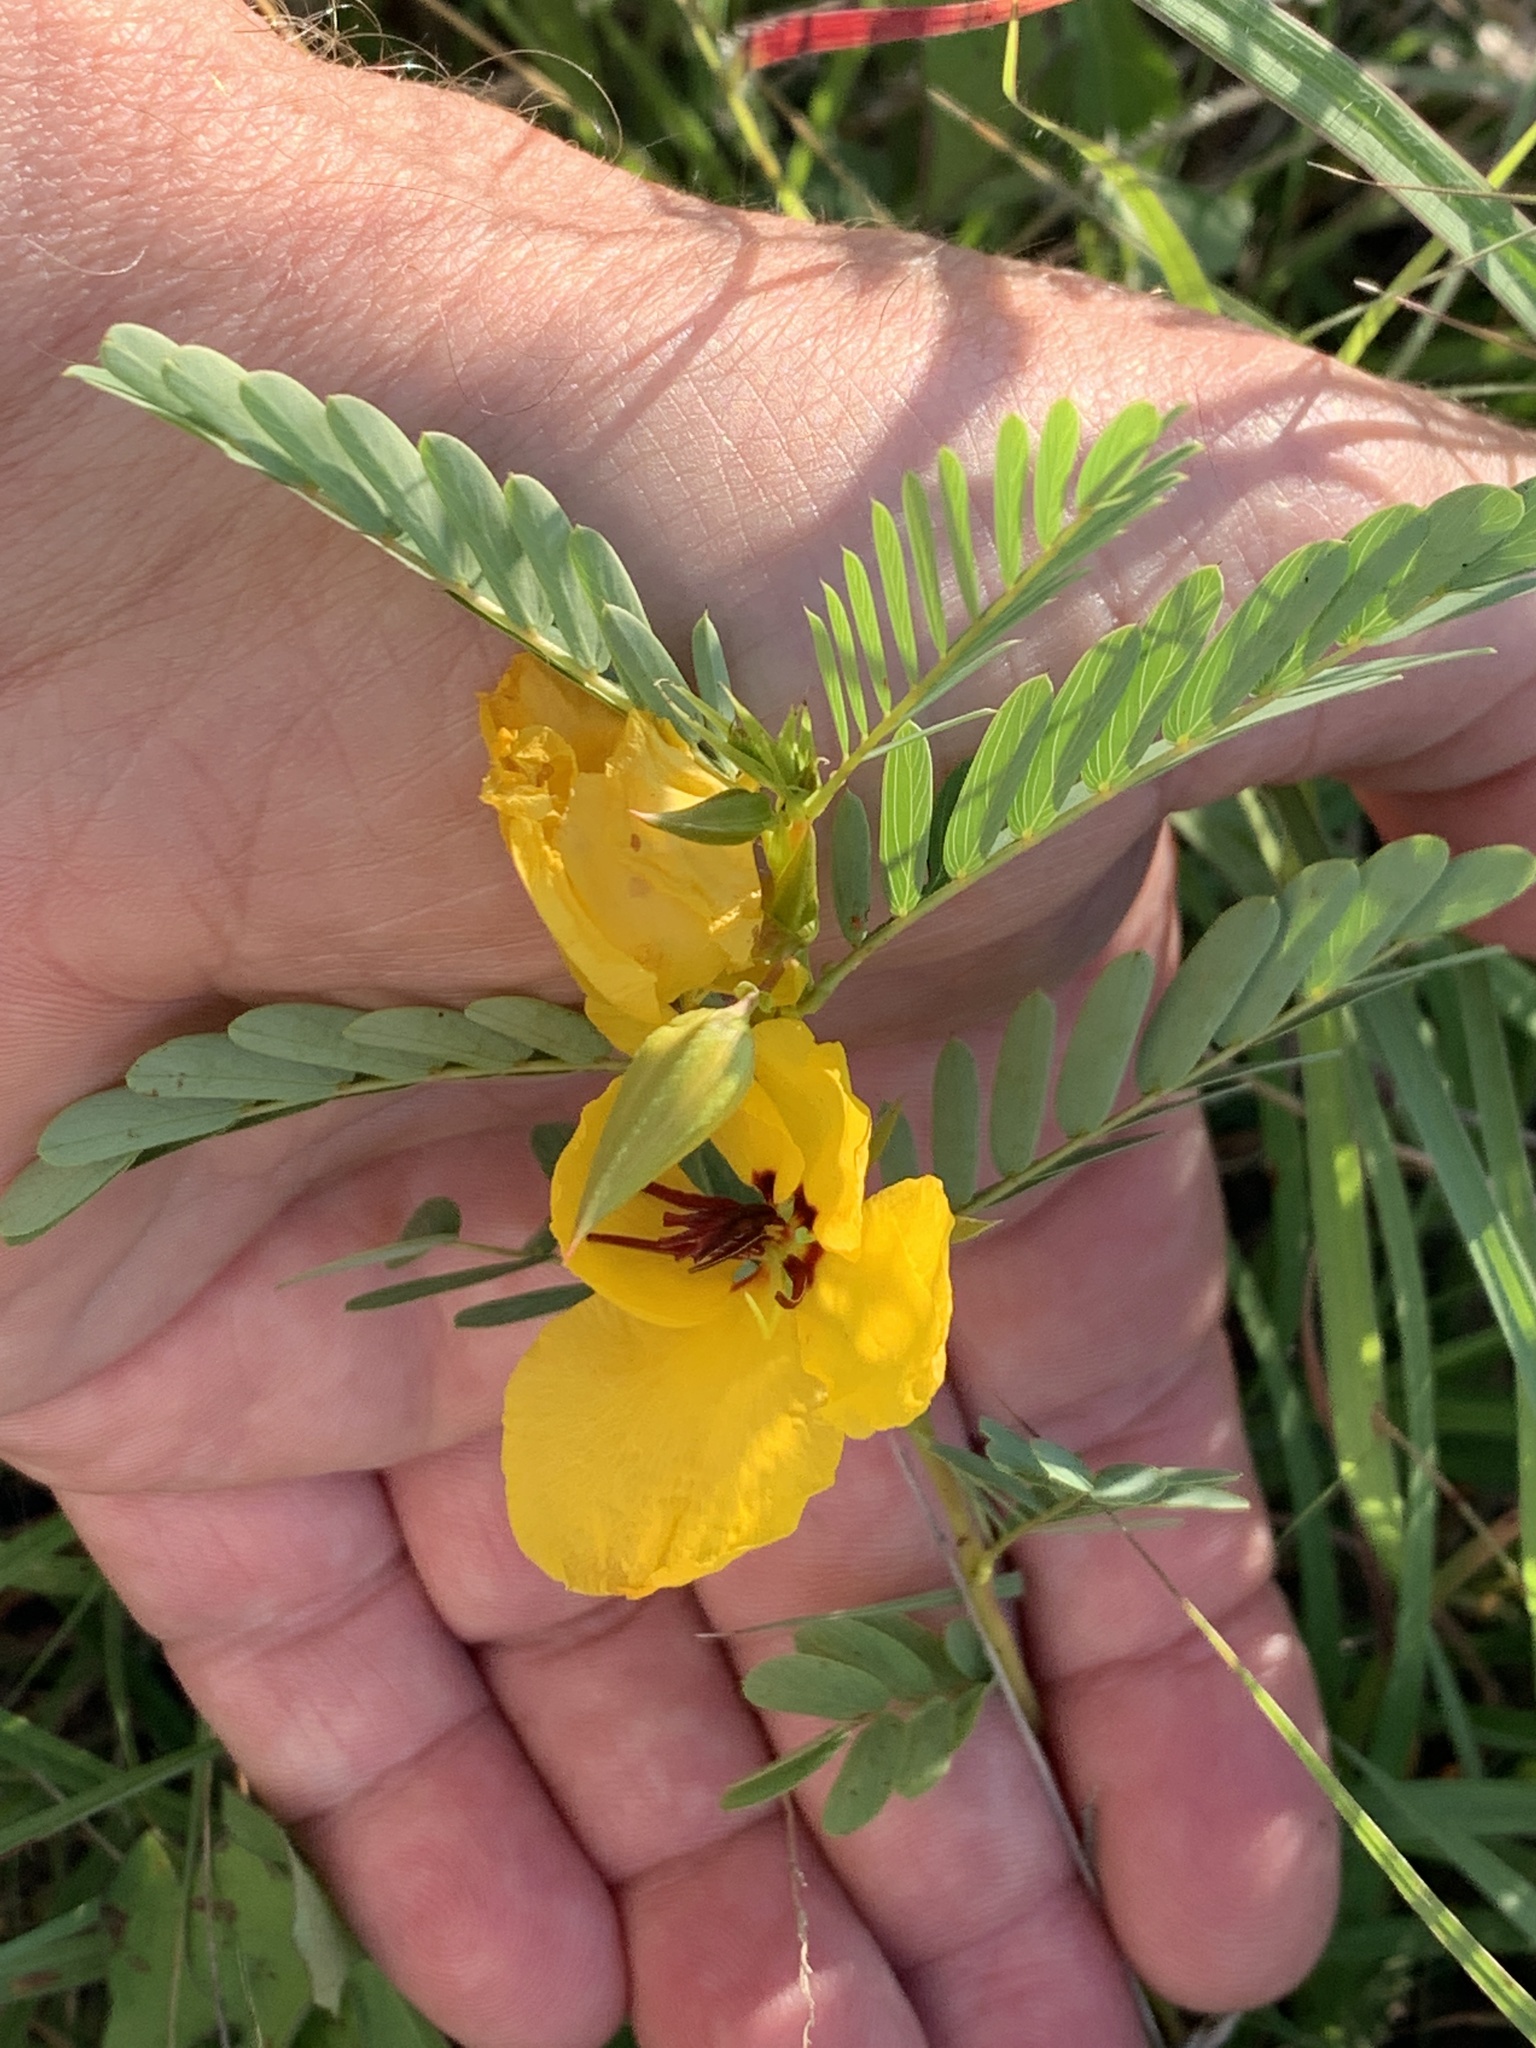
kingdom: Plantae
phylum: Tracheophyta
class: Magnoliopsida
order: Fabales
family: Fabaceae
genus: Chamaecrista
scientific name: Chamaecrista fasciculata
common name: Golden cassia
